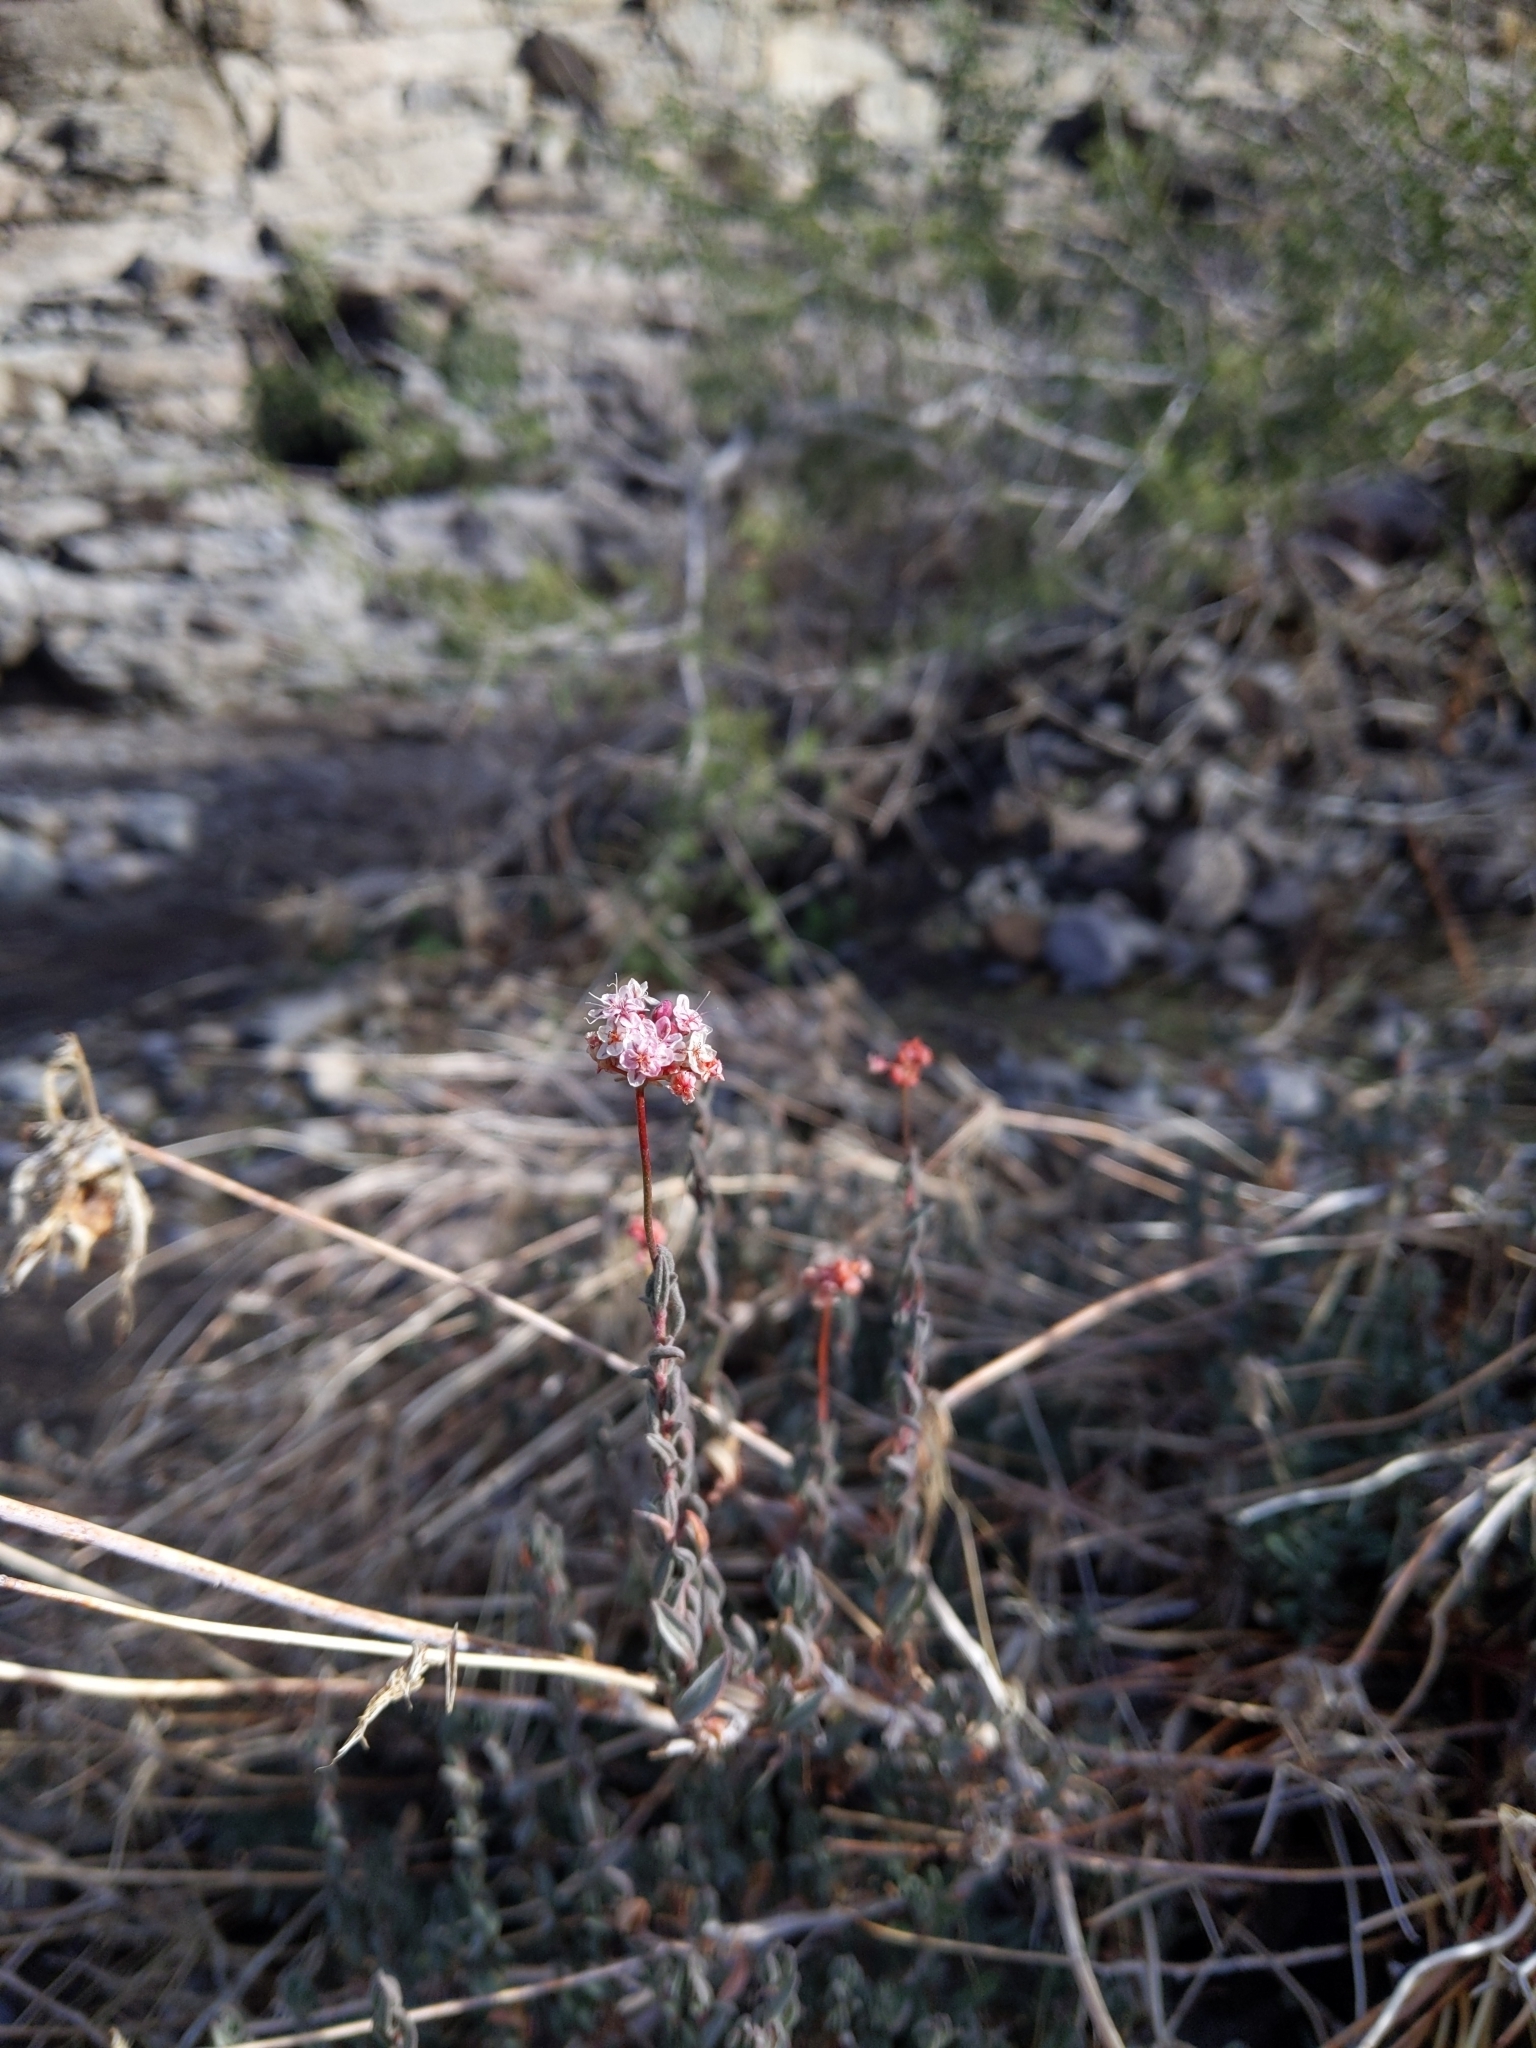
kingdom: Plantae
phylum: Tracheophyta
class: Magnoliopsida
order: Caryophyllales
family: Polygonaceae
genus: Eriogonum
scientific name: Eriogonum fasciculatum
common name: California wild buckwheat
